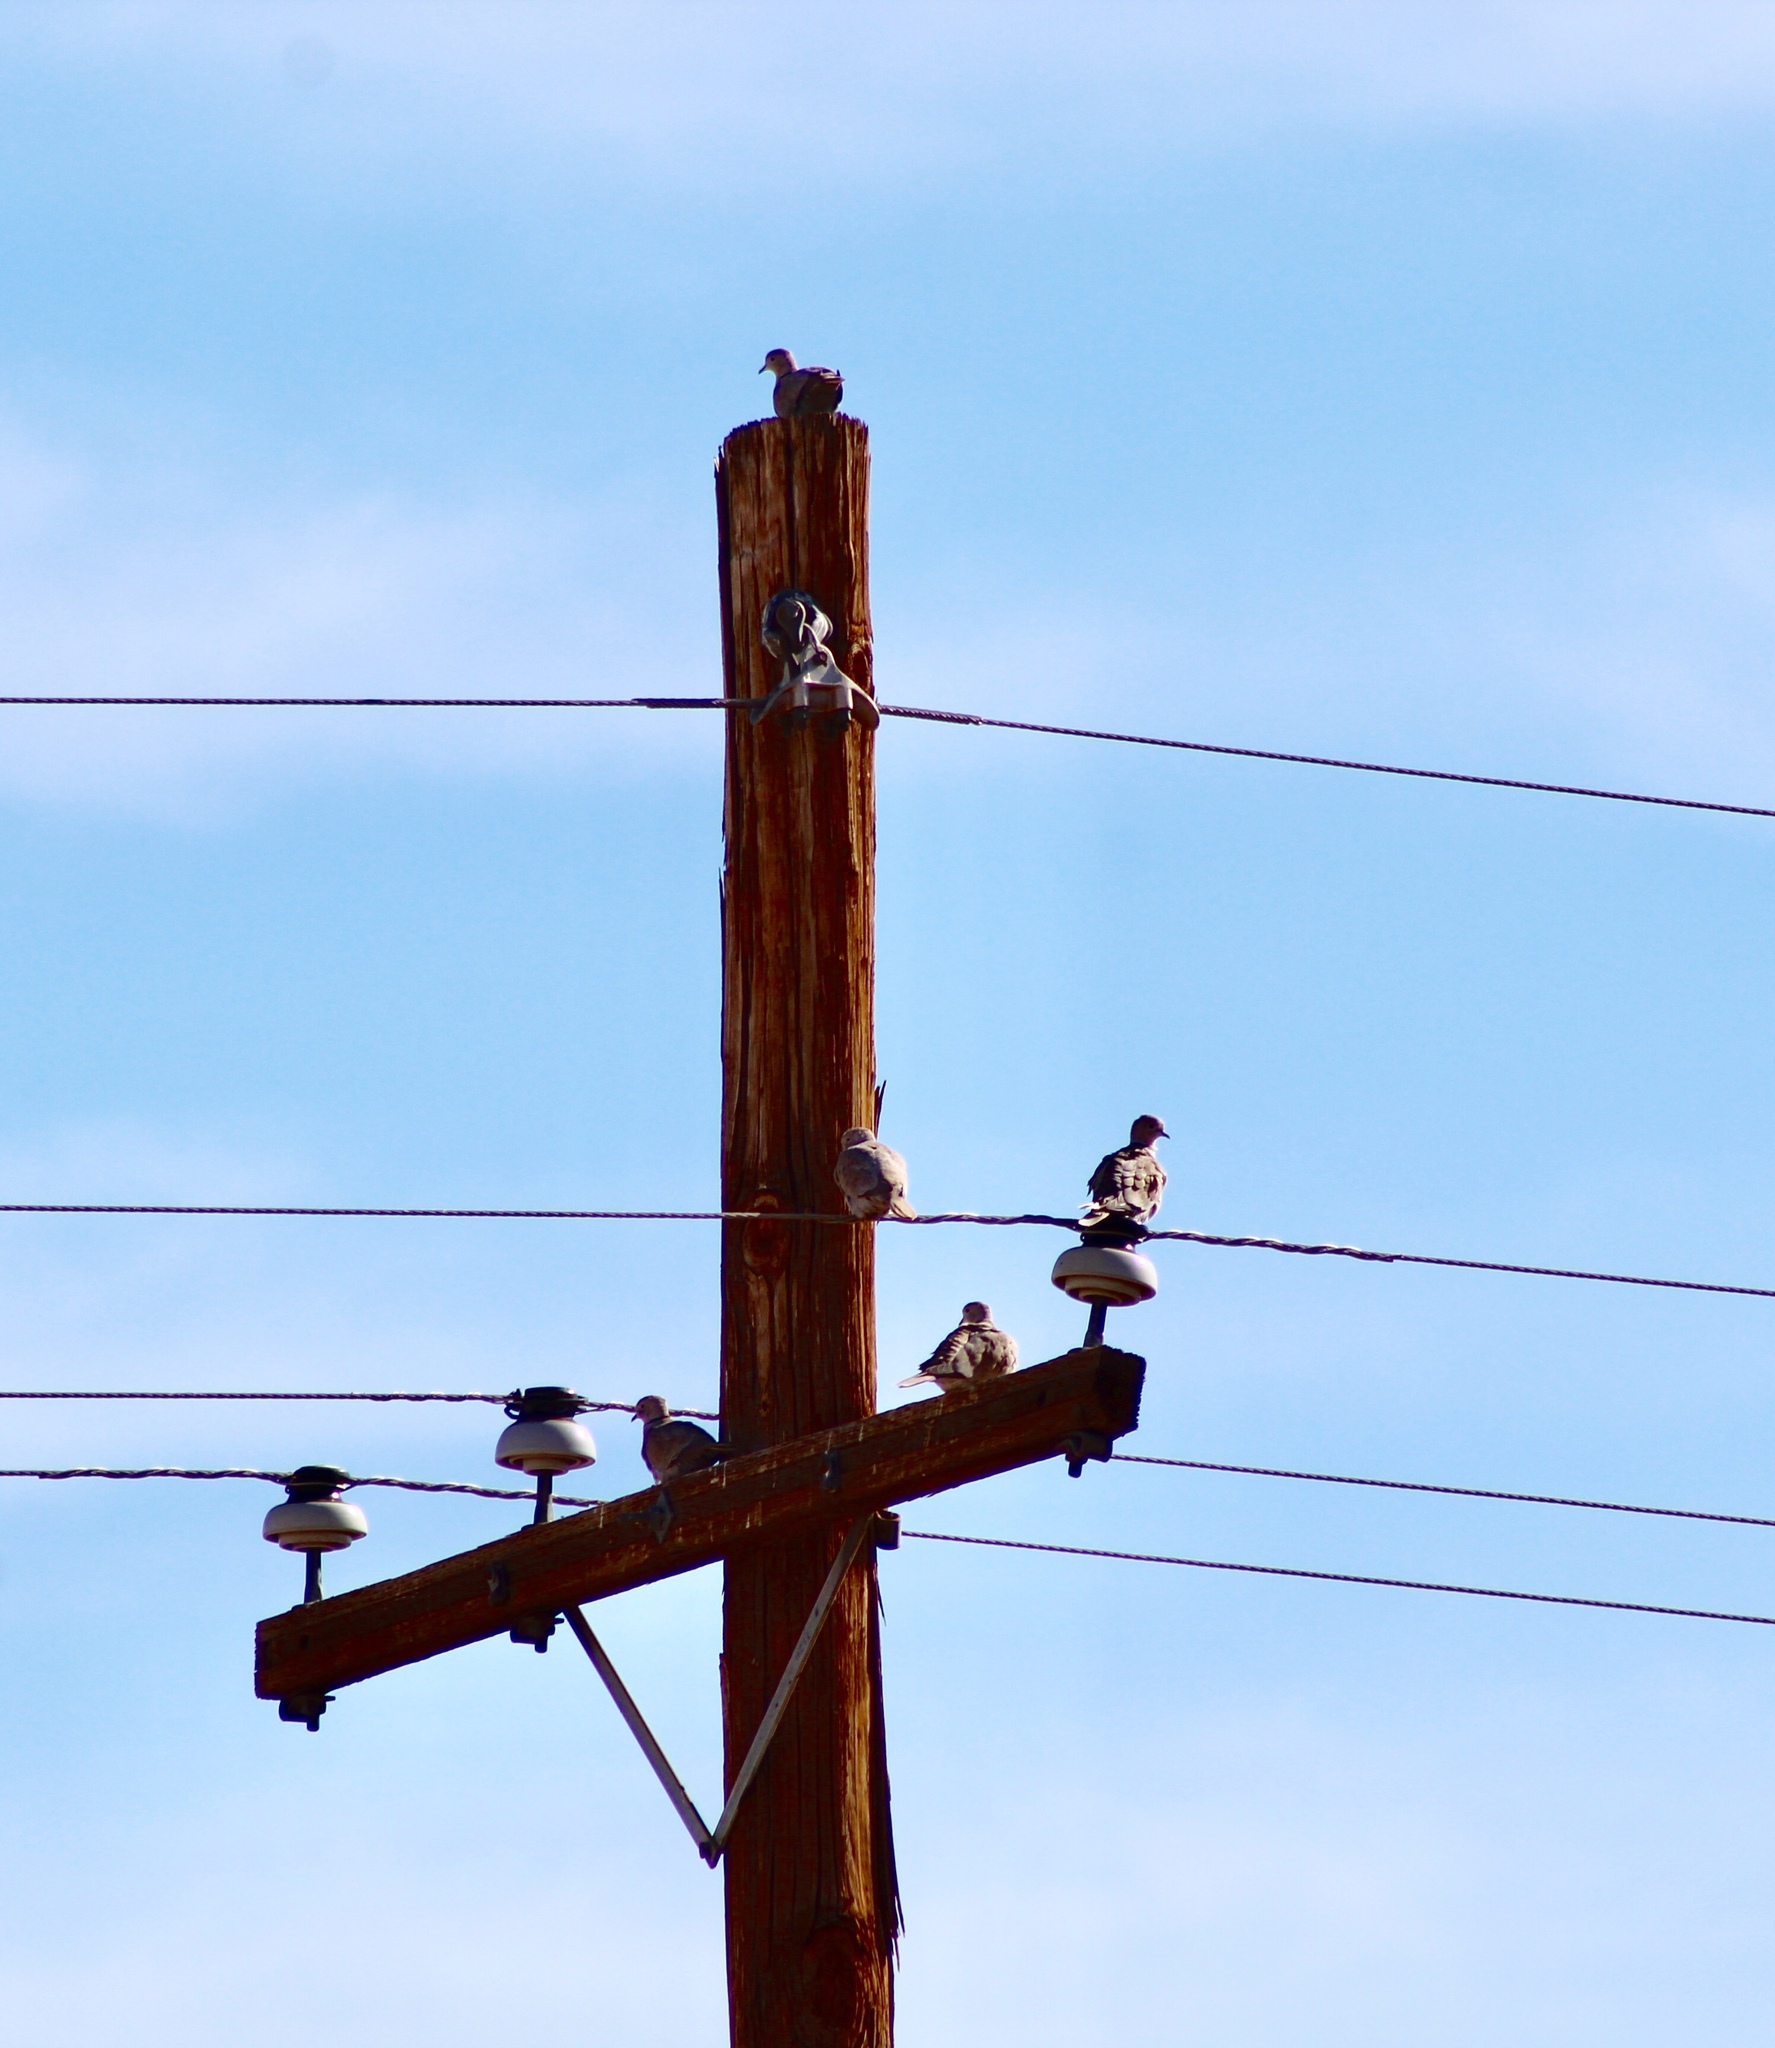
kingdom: Animalia
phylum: Chordata
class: Aves
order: Columbiformes
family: Columbidae
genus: Streptopelia
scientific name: Streptopelia decaocto
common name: Eurasian collared dove
